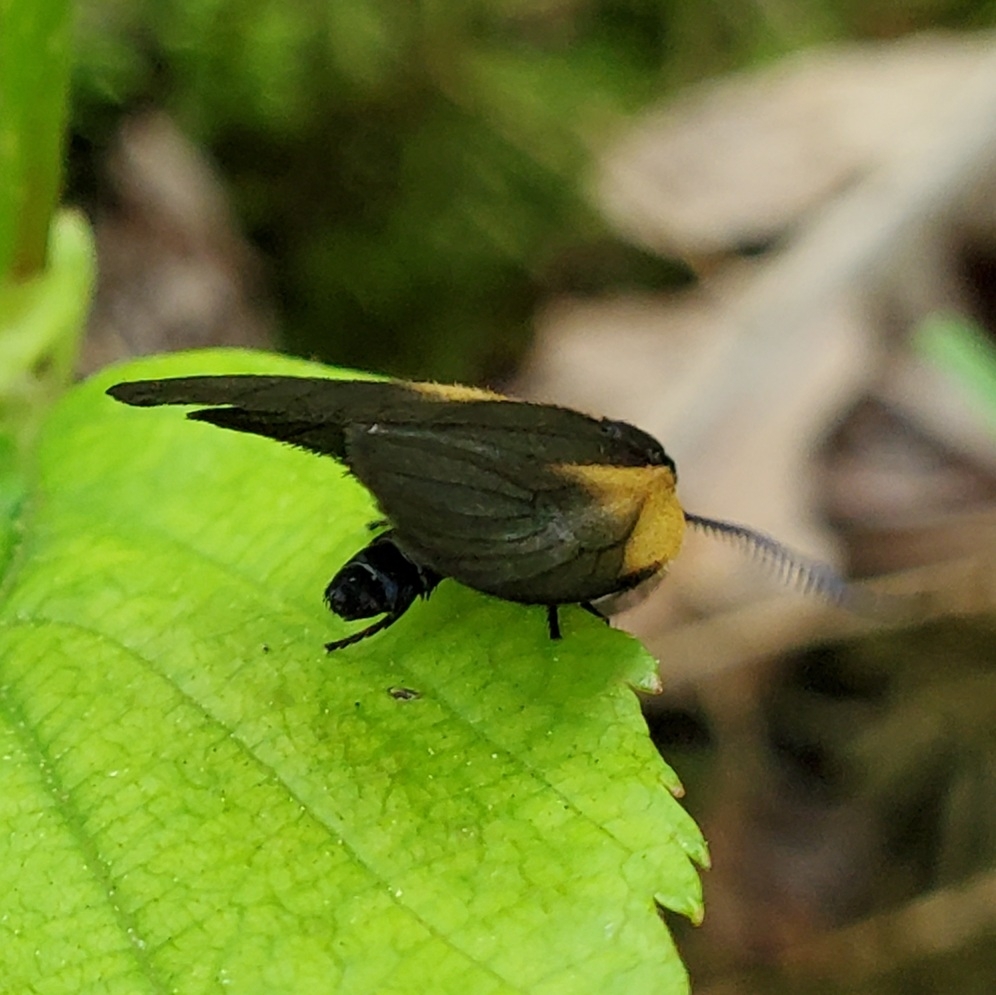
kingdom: Animalia
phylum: Arthropoda
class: Insecta
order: Lepidoptera
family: Zygaenidae
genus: Malthaca
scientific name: Malthaca dimidiata
